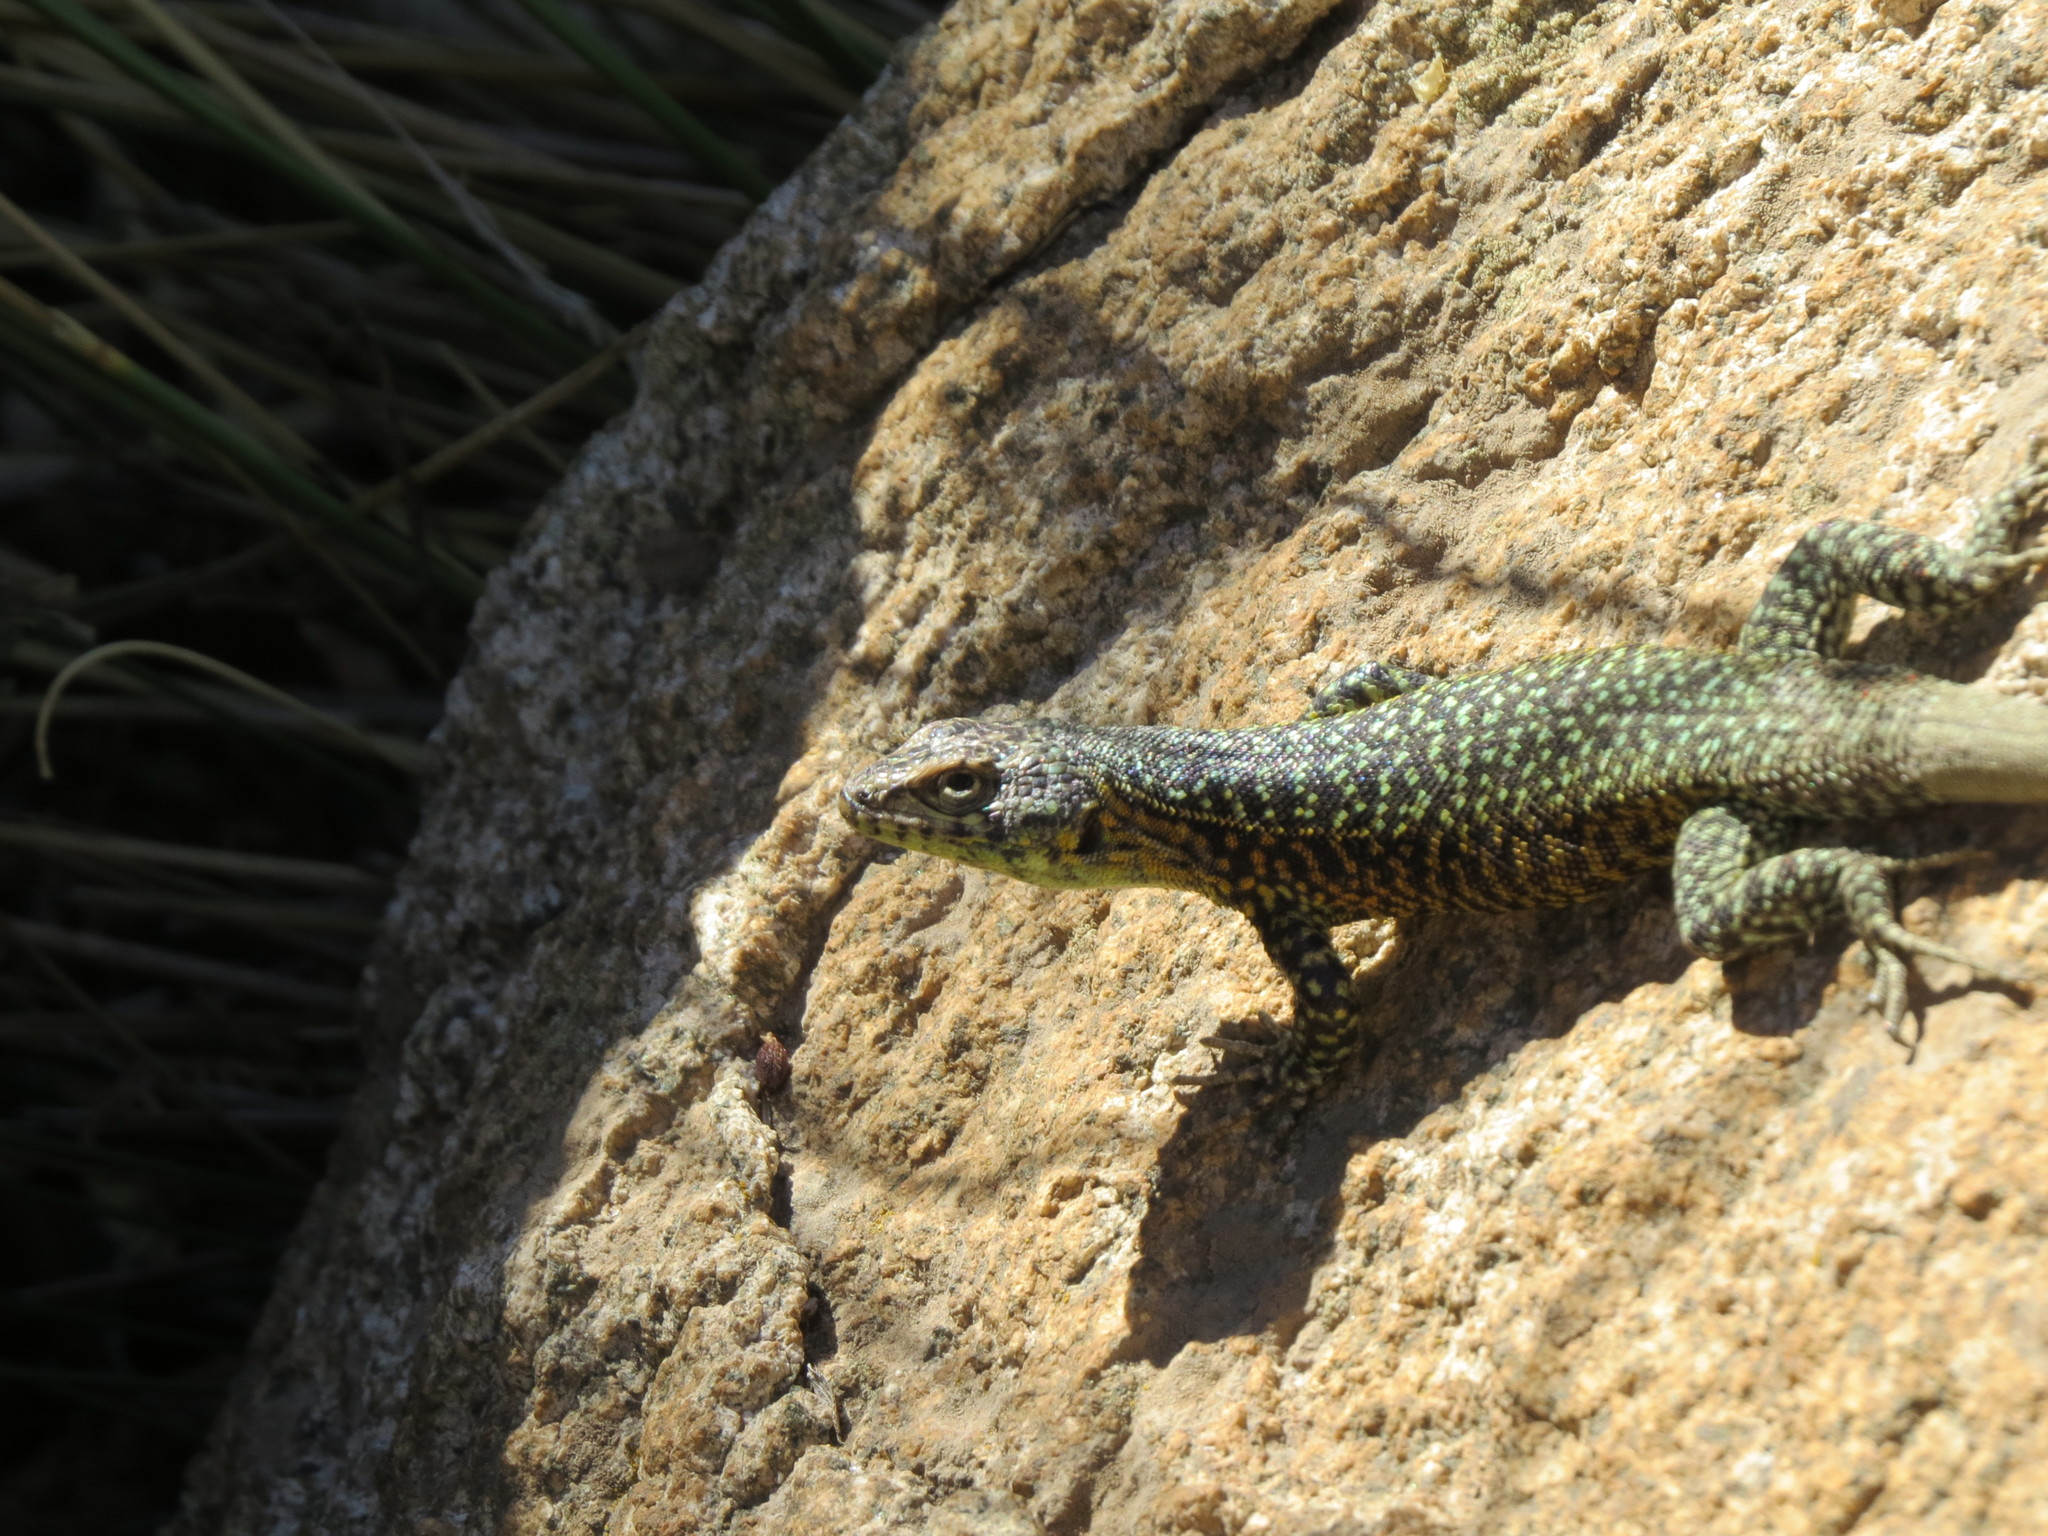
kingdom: Animalia
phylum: Chordata
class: Squamata
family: Liolaemidae
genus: Liolaemus
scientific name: Liolaemus nigroviridis
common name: Black-green tree iguana
